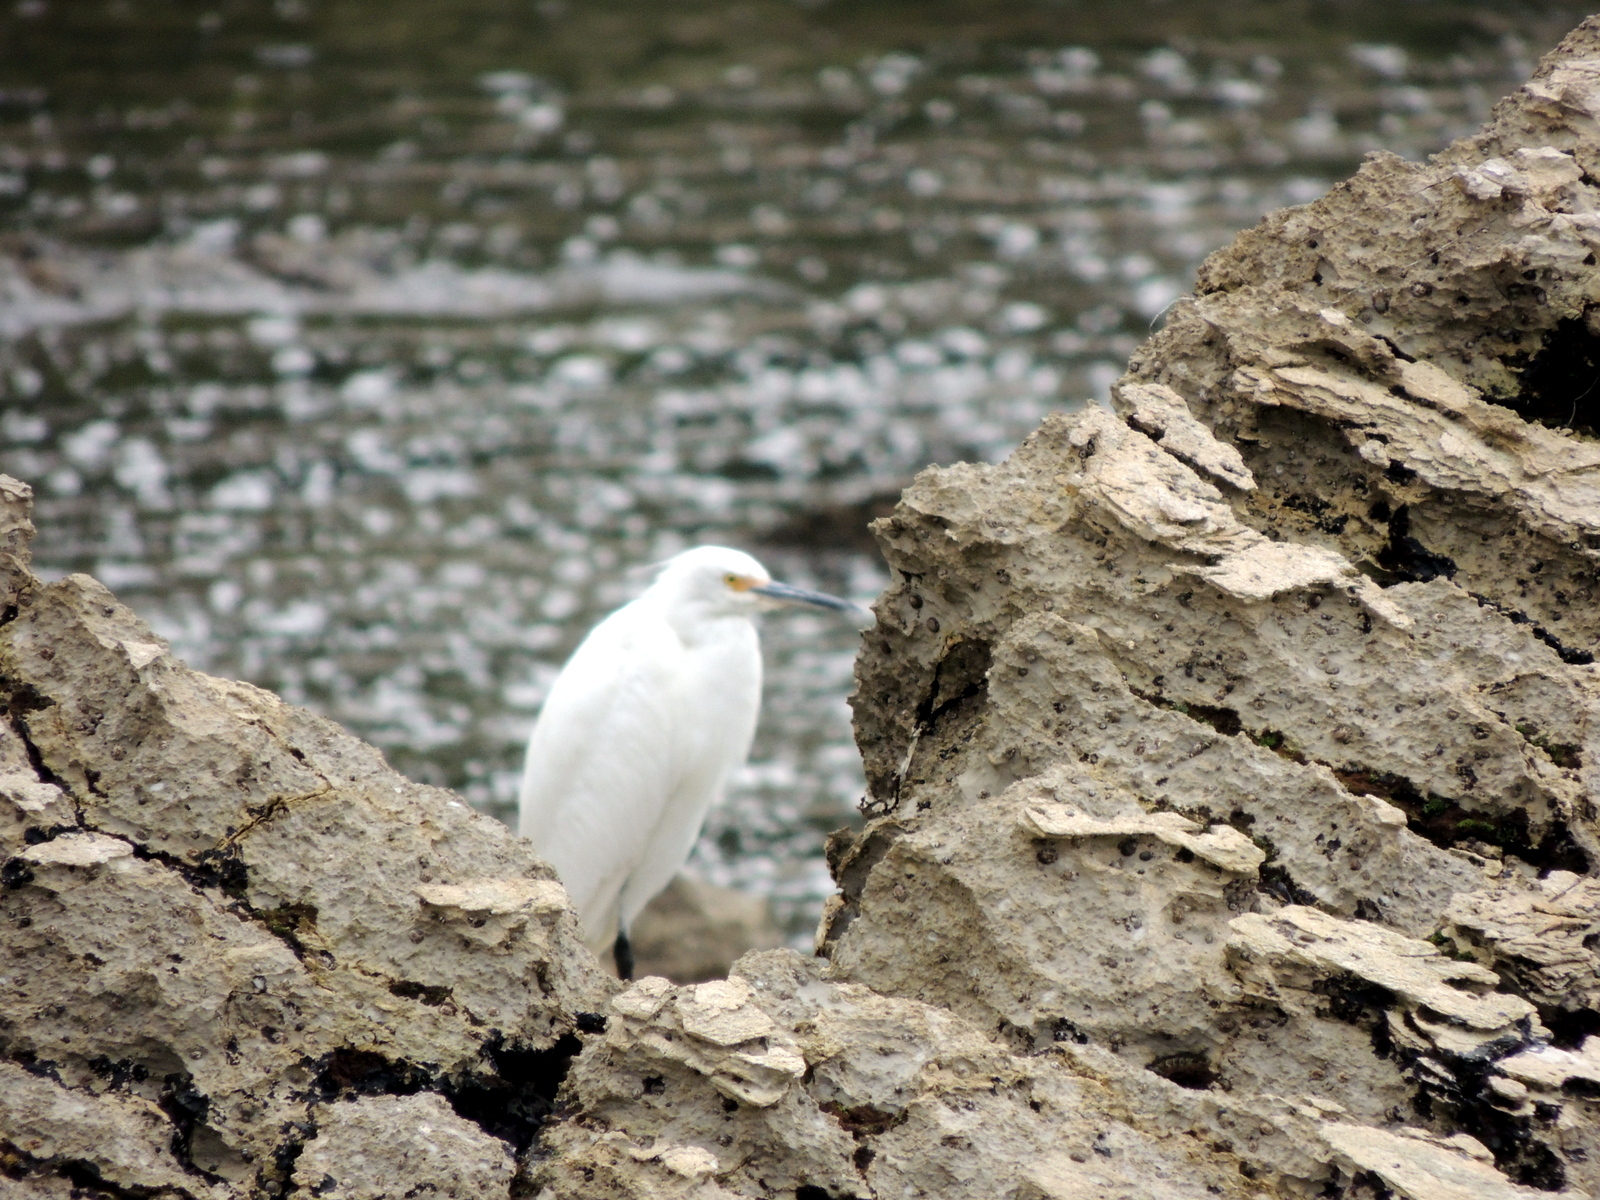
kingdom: Animalia
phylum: Chordata
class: Aves
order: Pelecaniformes
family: Ardeidae
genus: Egretta
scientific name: Egretta thula
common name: Snowy egret
